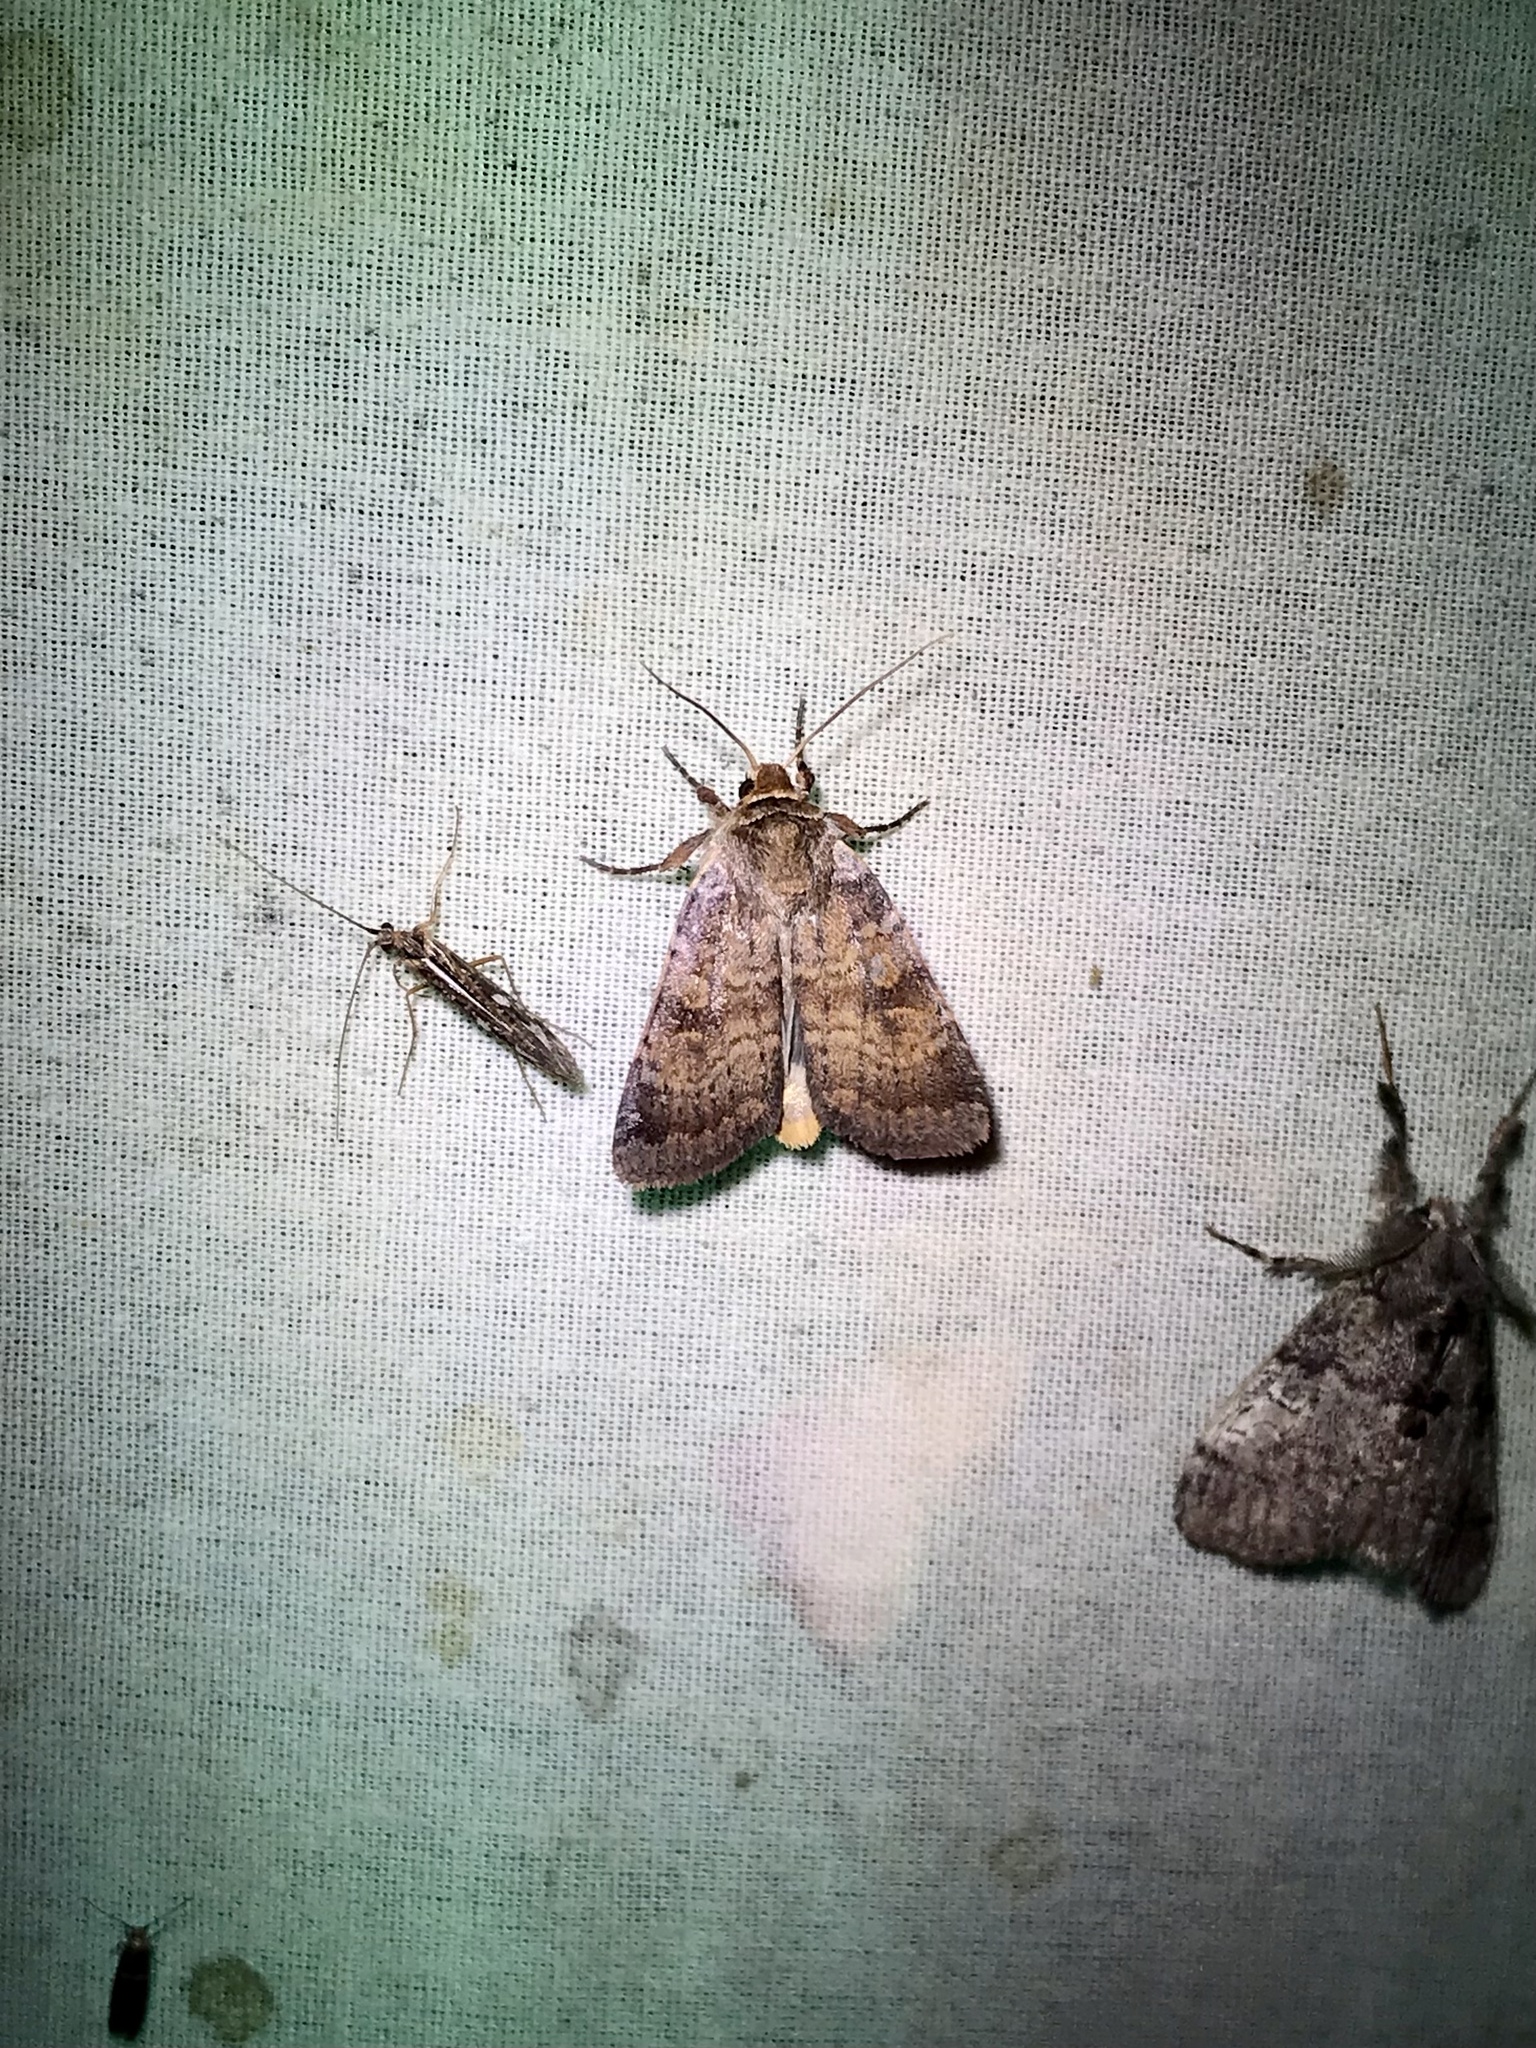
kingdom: Animalia
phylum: Arthropoda
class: Insecta
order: Lepidoptera
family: Noctuidae
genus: Lycophotia
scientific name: Lycophotia phyllophora
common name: Lycophotia moth
